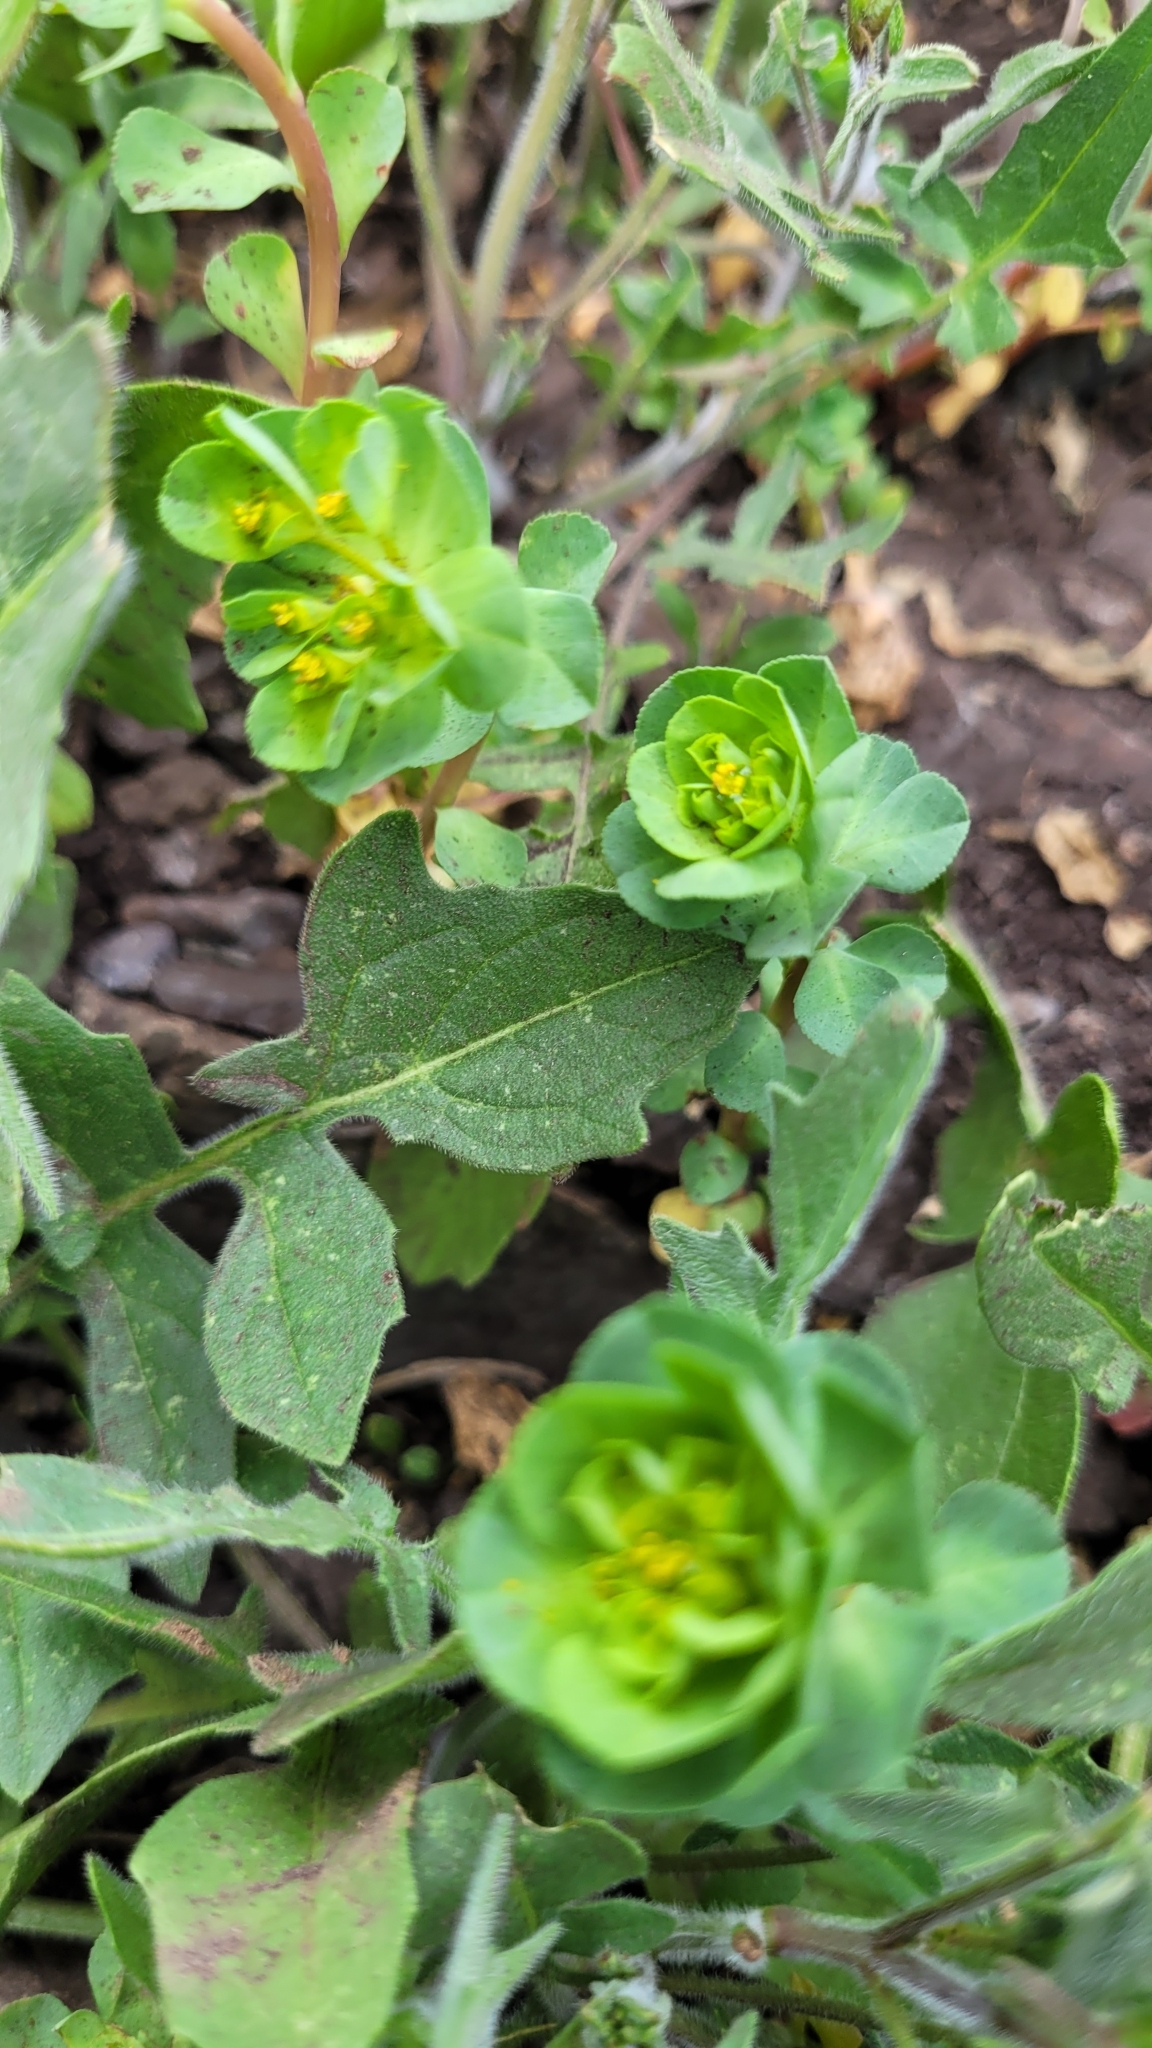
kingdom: Plantae
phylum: Tracheophyta
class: Magnoliopsida
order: Malpighiales
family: Euphorbiaceae
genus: Euphorbia
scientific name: Euphorbia helioscopia
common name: Sun spurge
